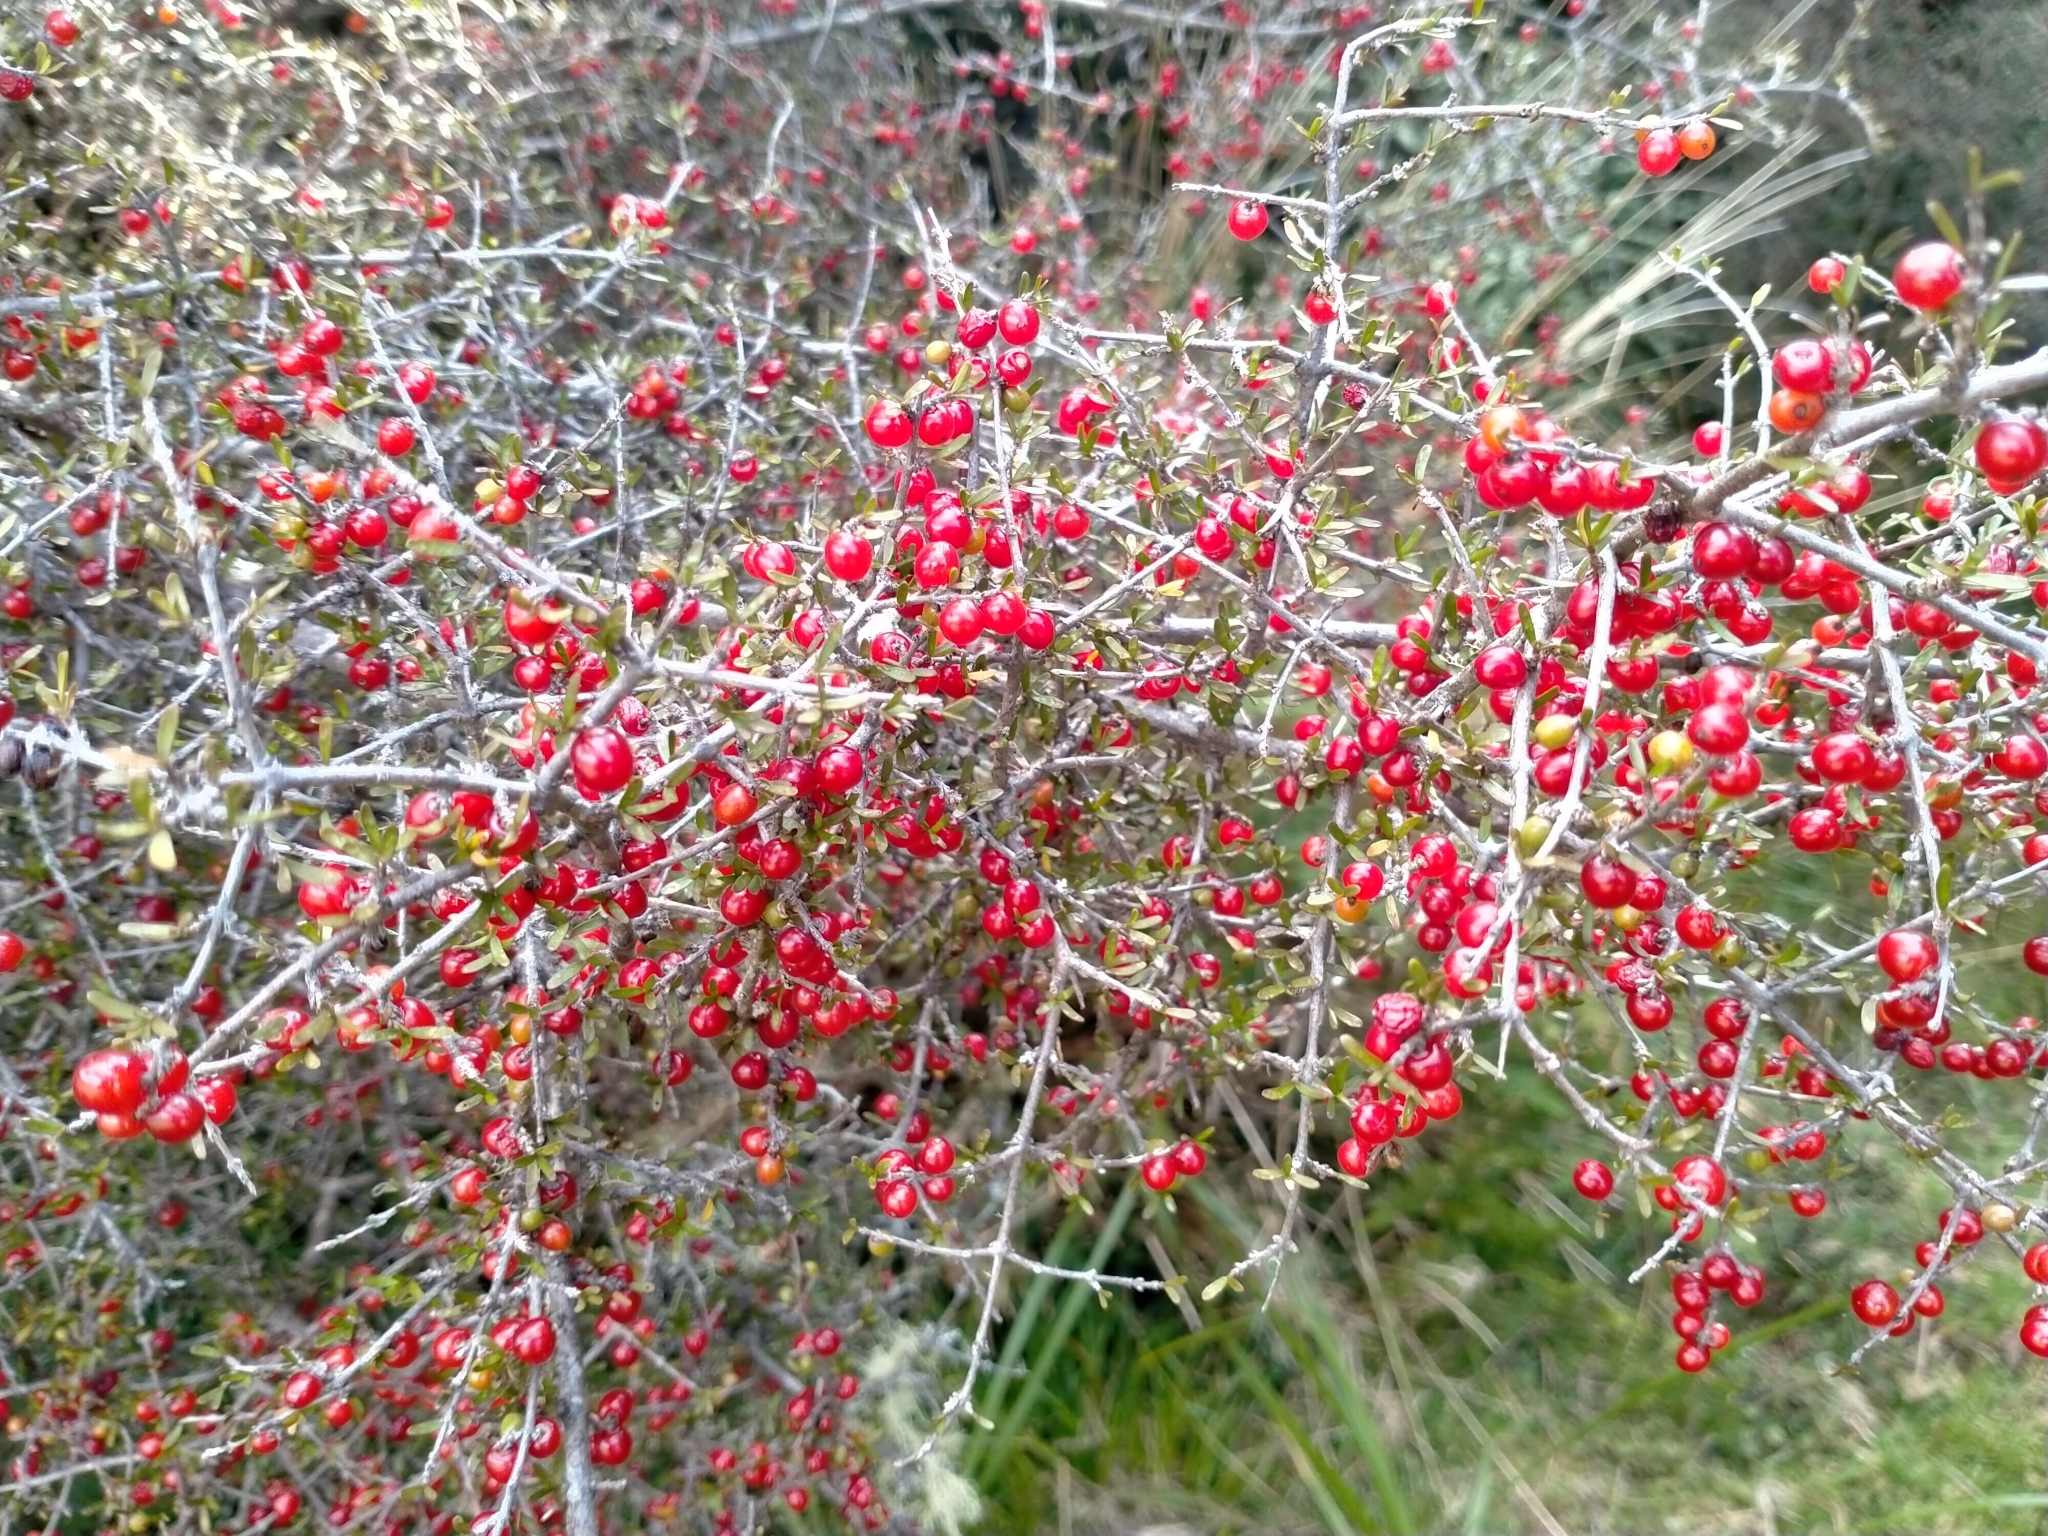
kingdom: Plantae
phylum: Tracheophyta
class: Magnoliopsida
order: Gentianales
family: Rubiaceae
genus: Coprosma
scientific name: Coprosma decurva
